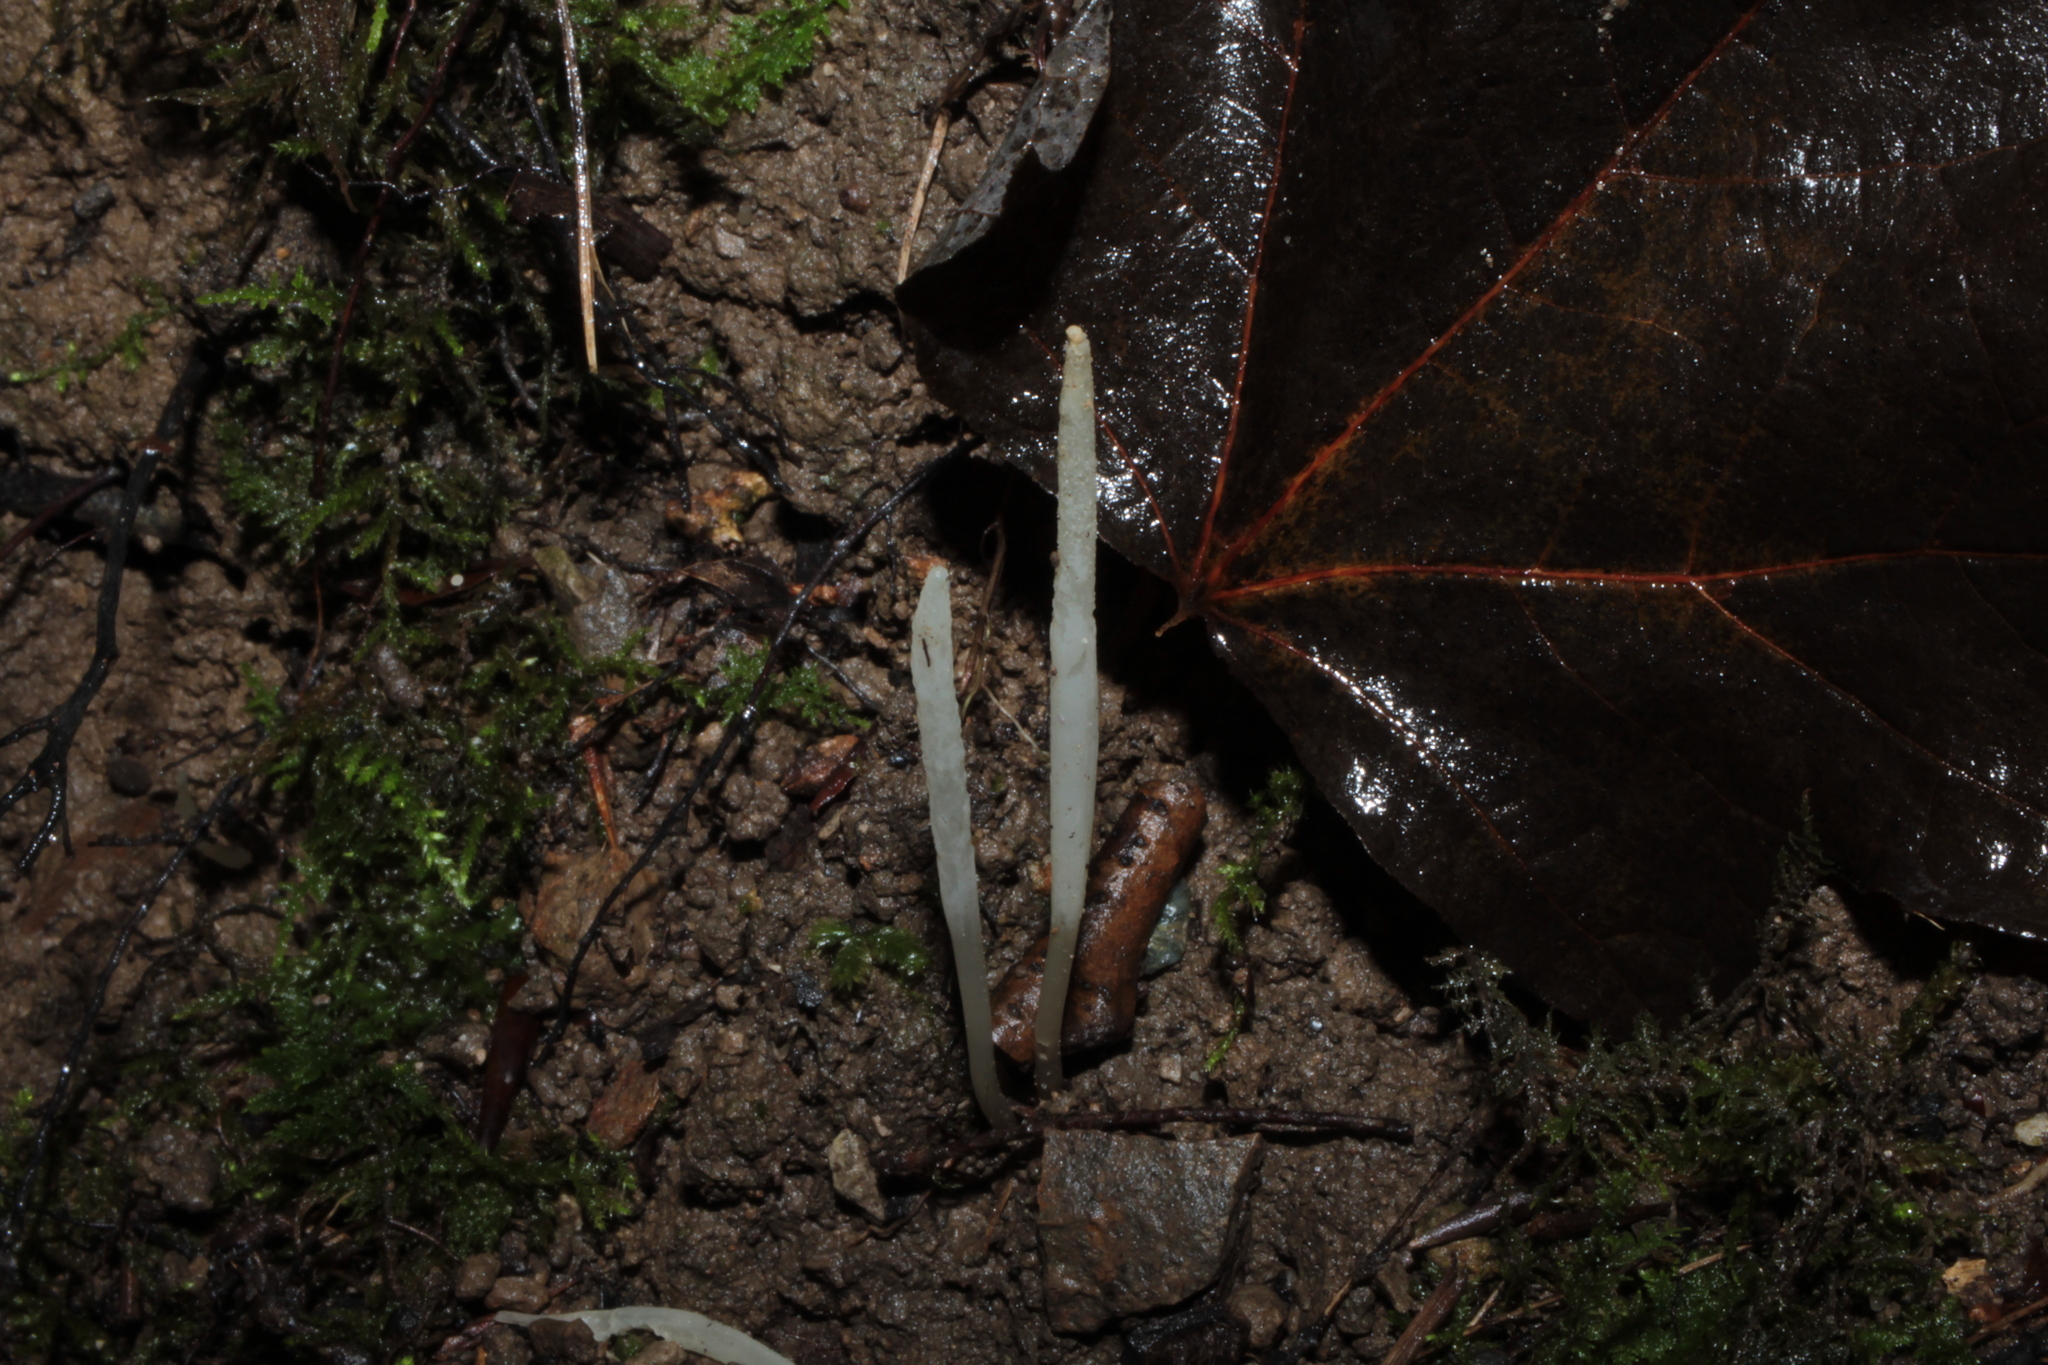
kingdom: Fungi
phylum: Basidiomycota
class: Agaricomycetes
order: Agaricales
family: Clavariaceae
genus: Clavaria
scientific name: Clavaria fuscata
